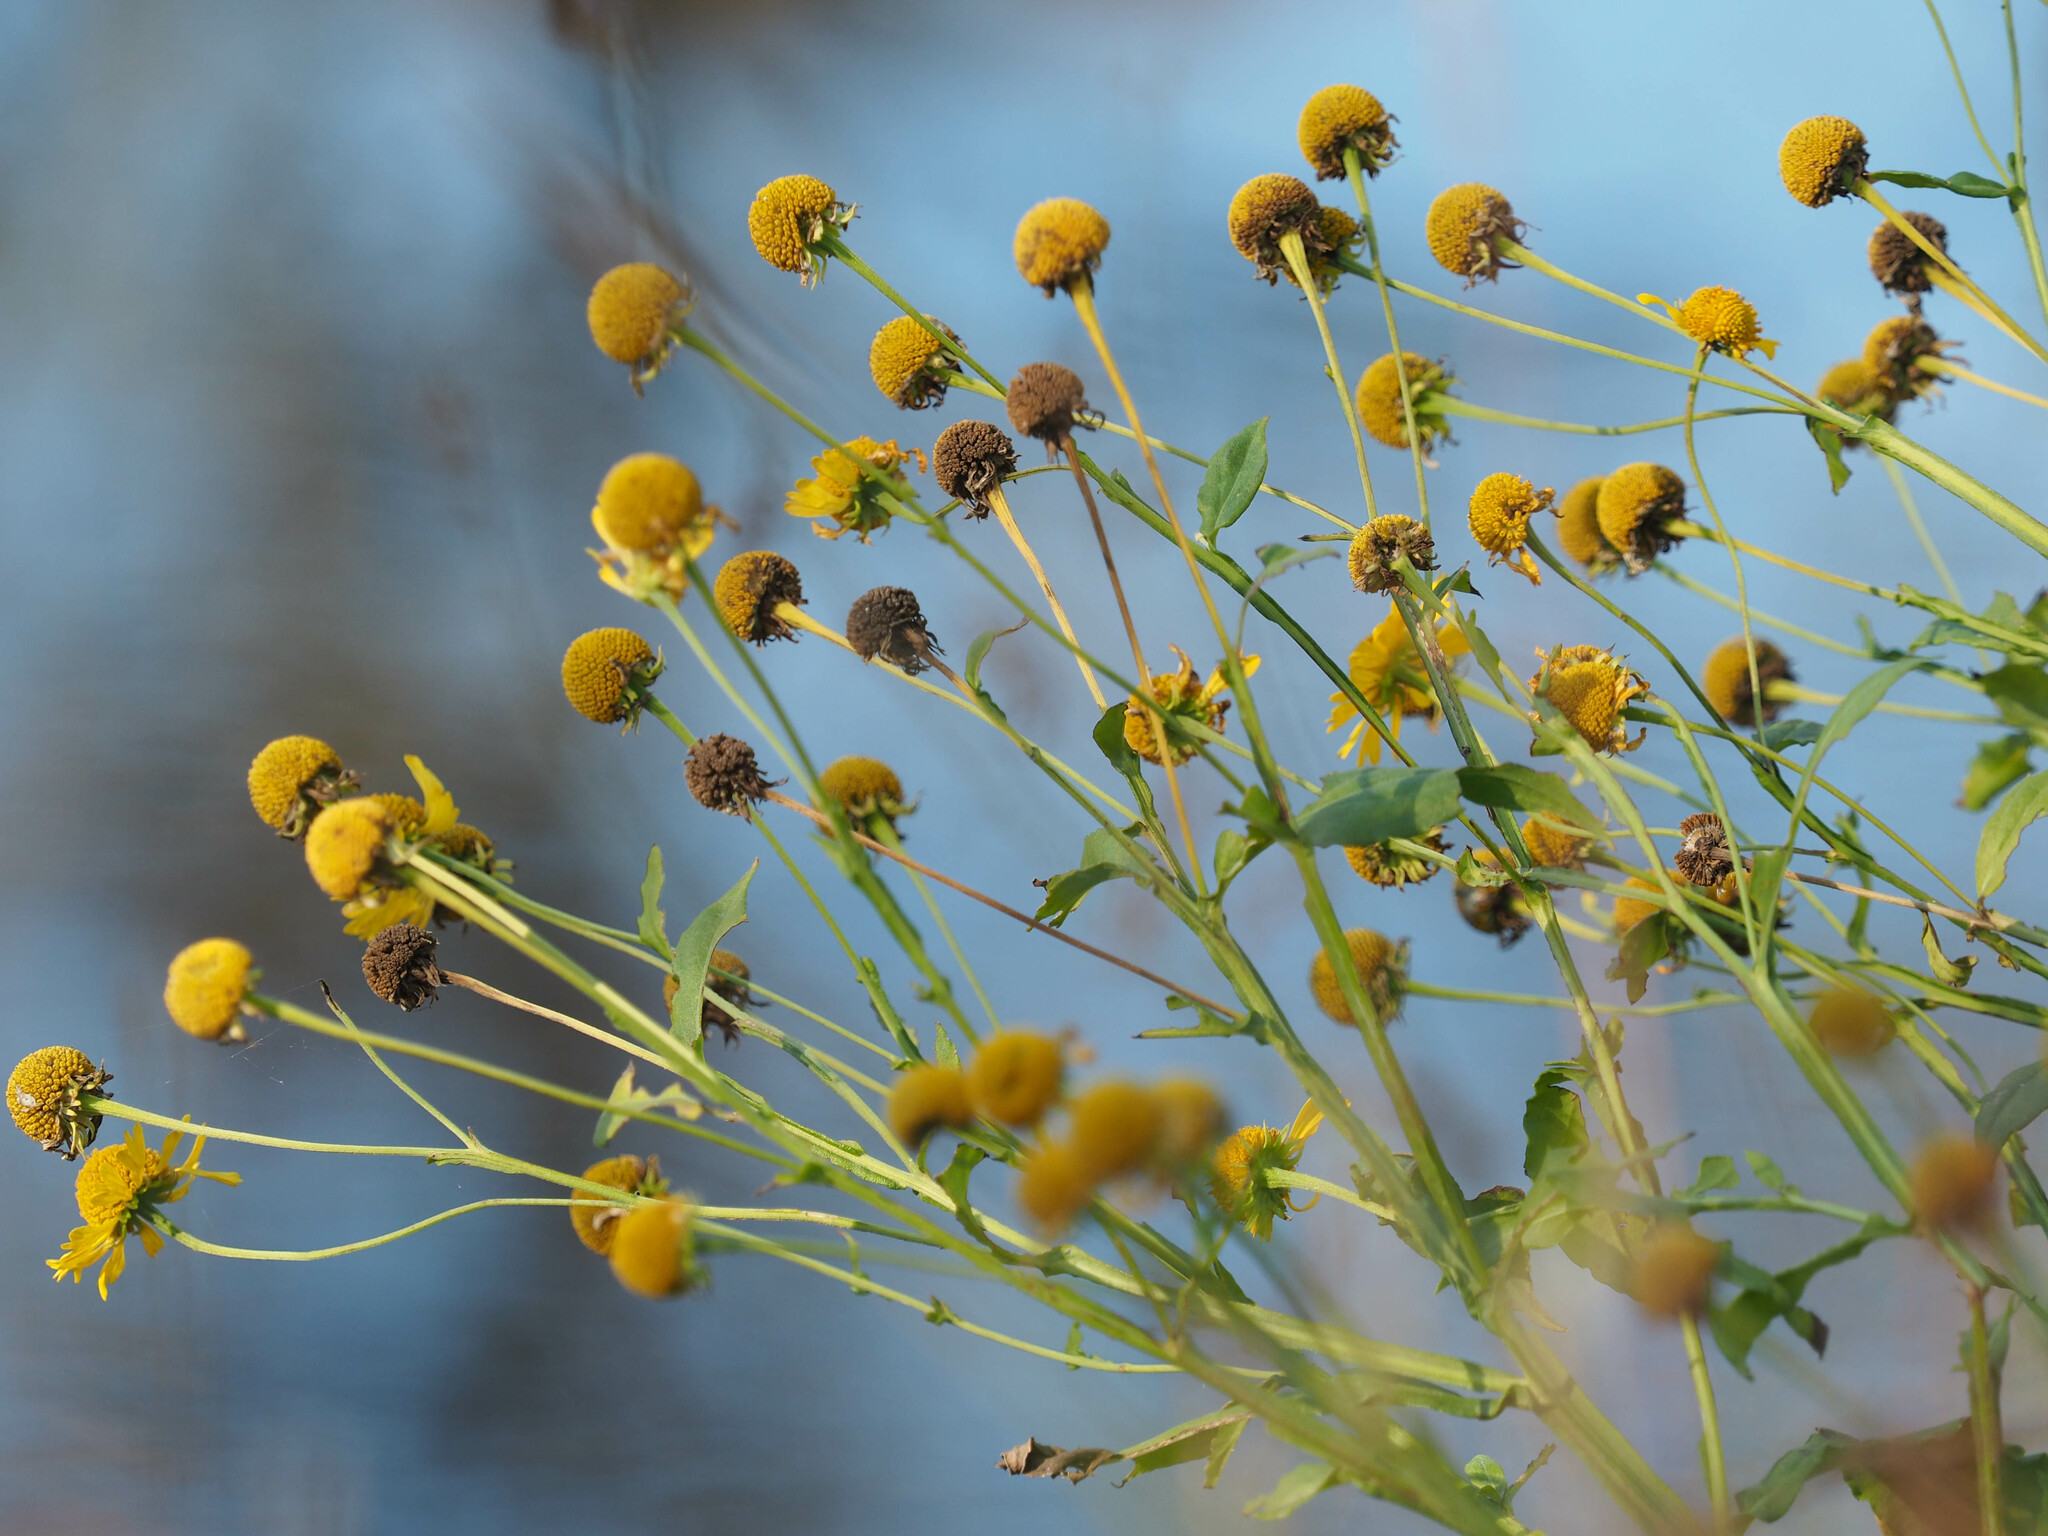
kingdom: Plantae
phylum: Tracheophyta
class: Magnoliopsida
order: Asterales
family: Asteraceae
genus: Helenium
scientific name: Helenium autumnale
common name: Sneezeweed
